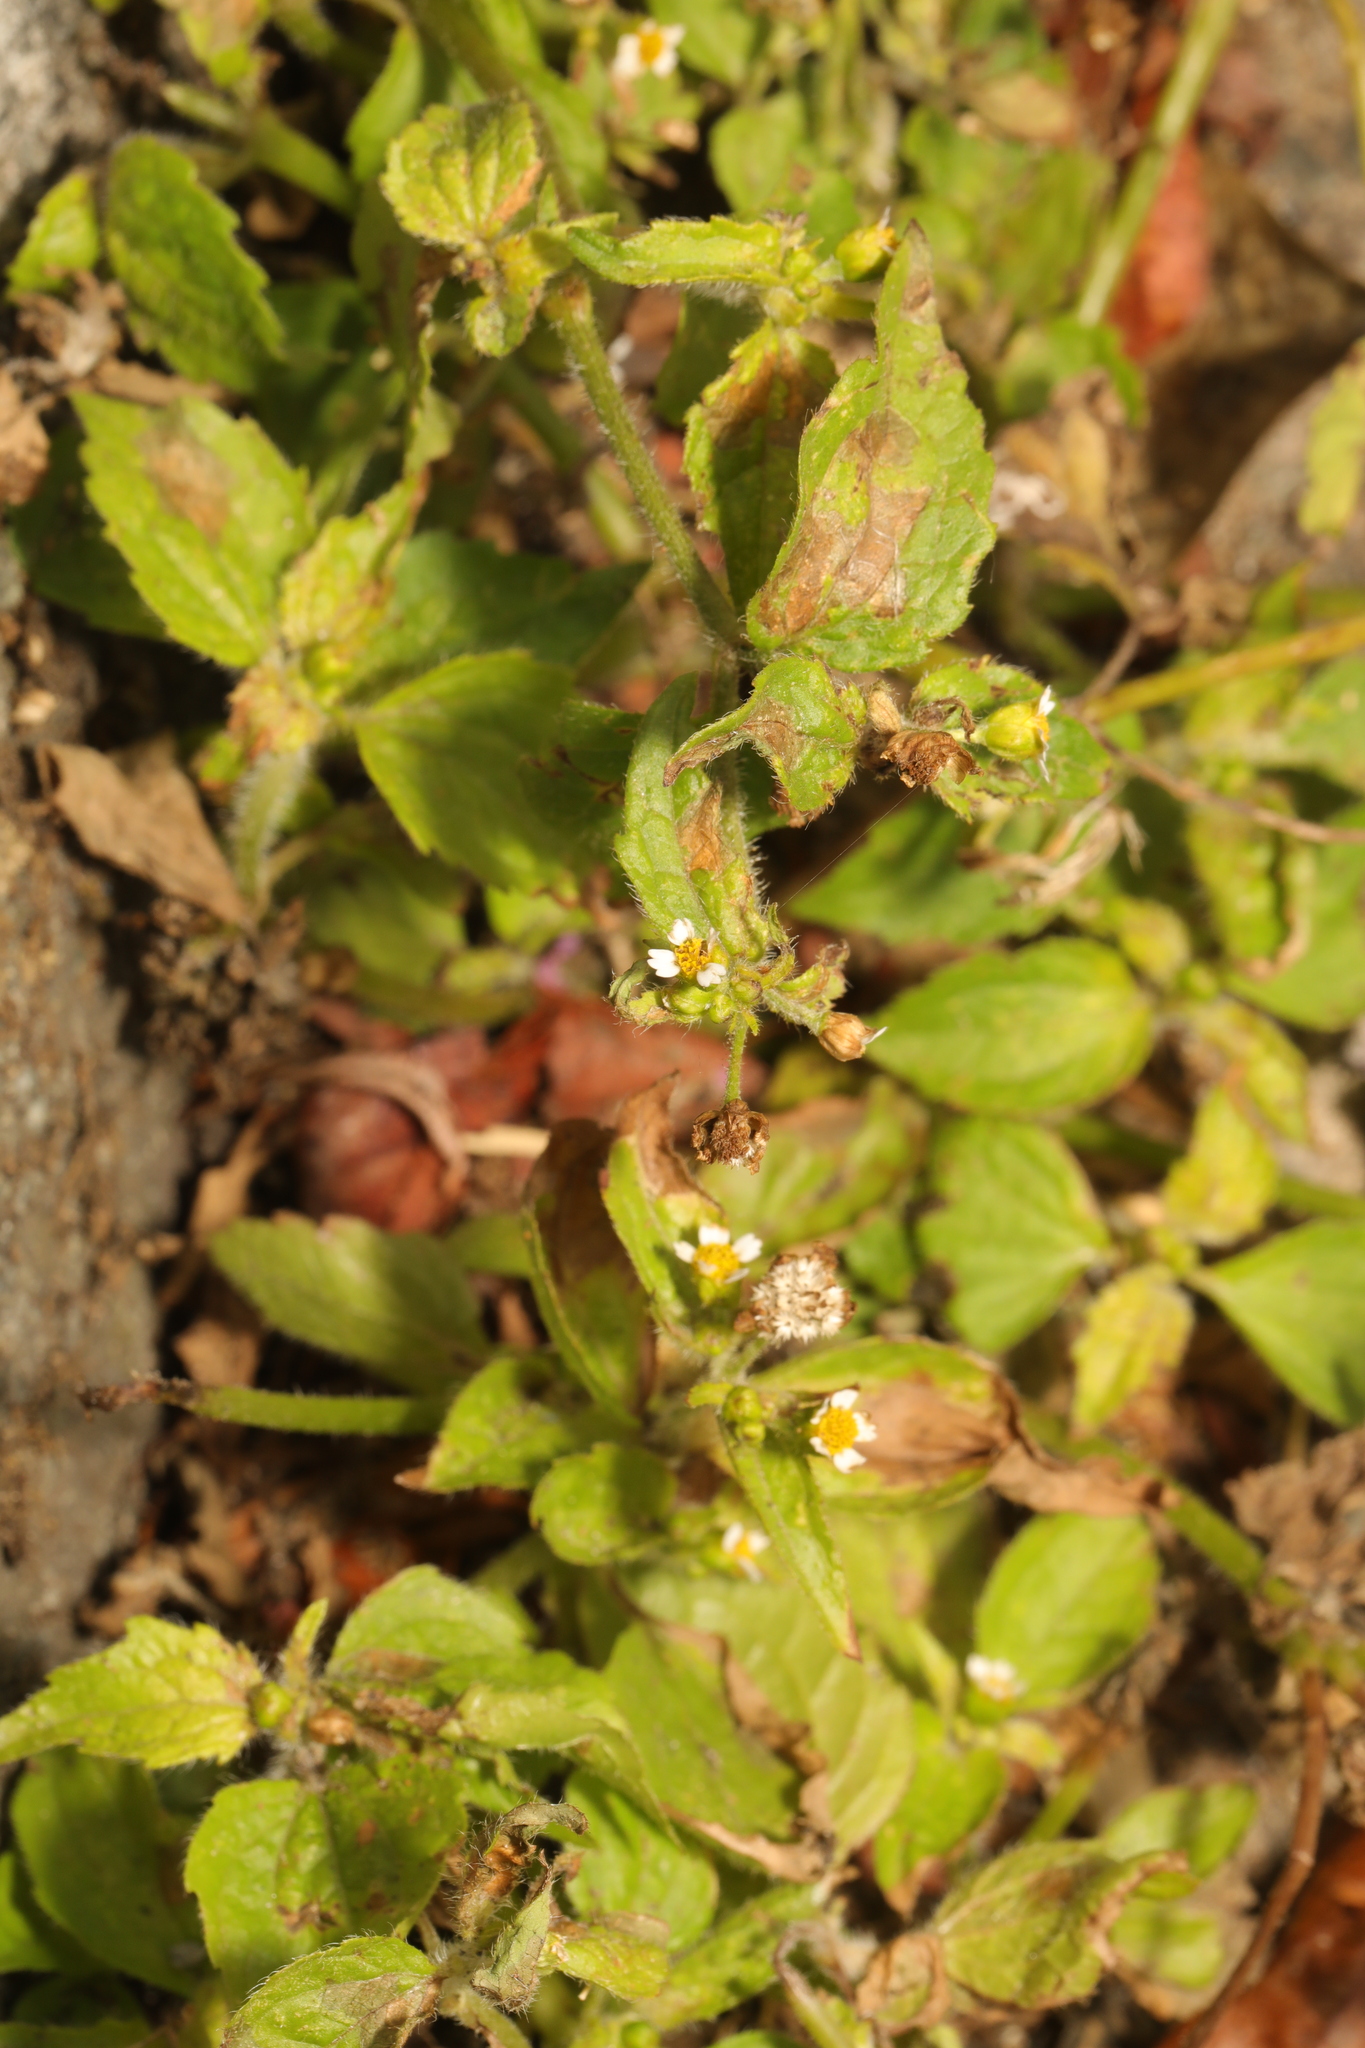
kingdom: Plantae
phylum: Tracheophyta
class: Magnoliopsida
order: Asterales
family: Asteraceae
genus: Galinsoga
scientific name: Galinsoga quadriradiata
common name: Shaggy soldier
